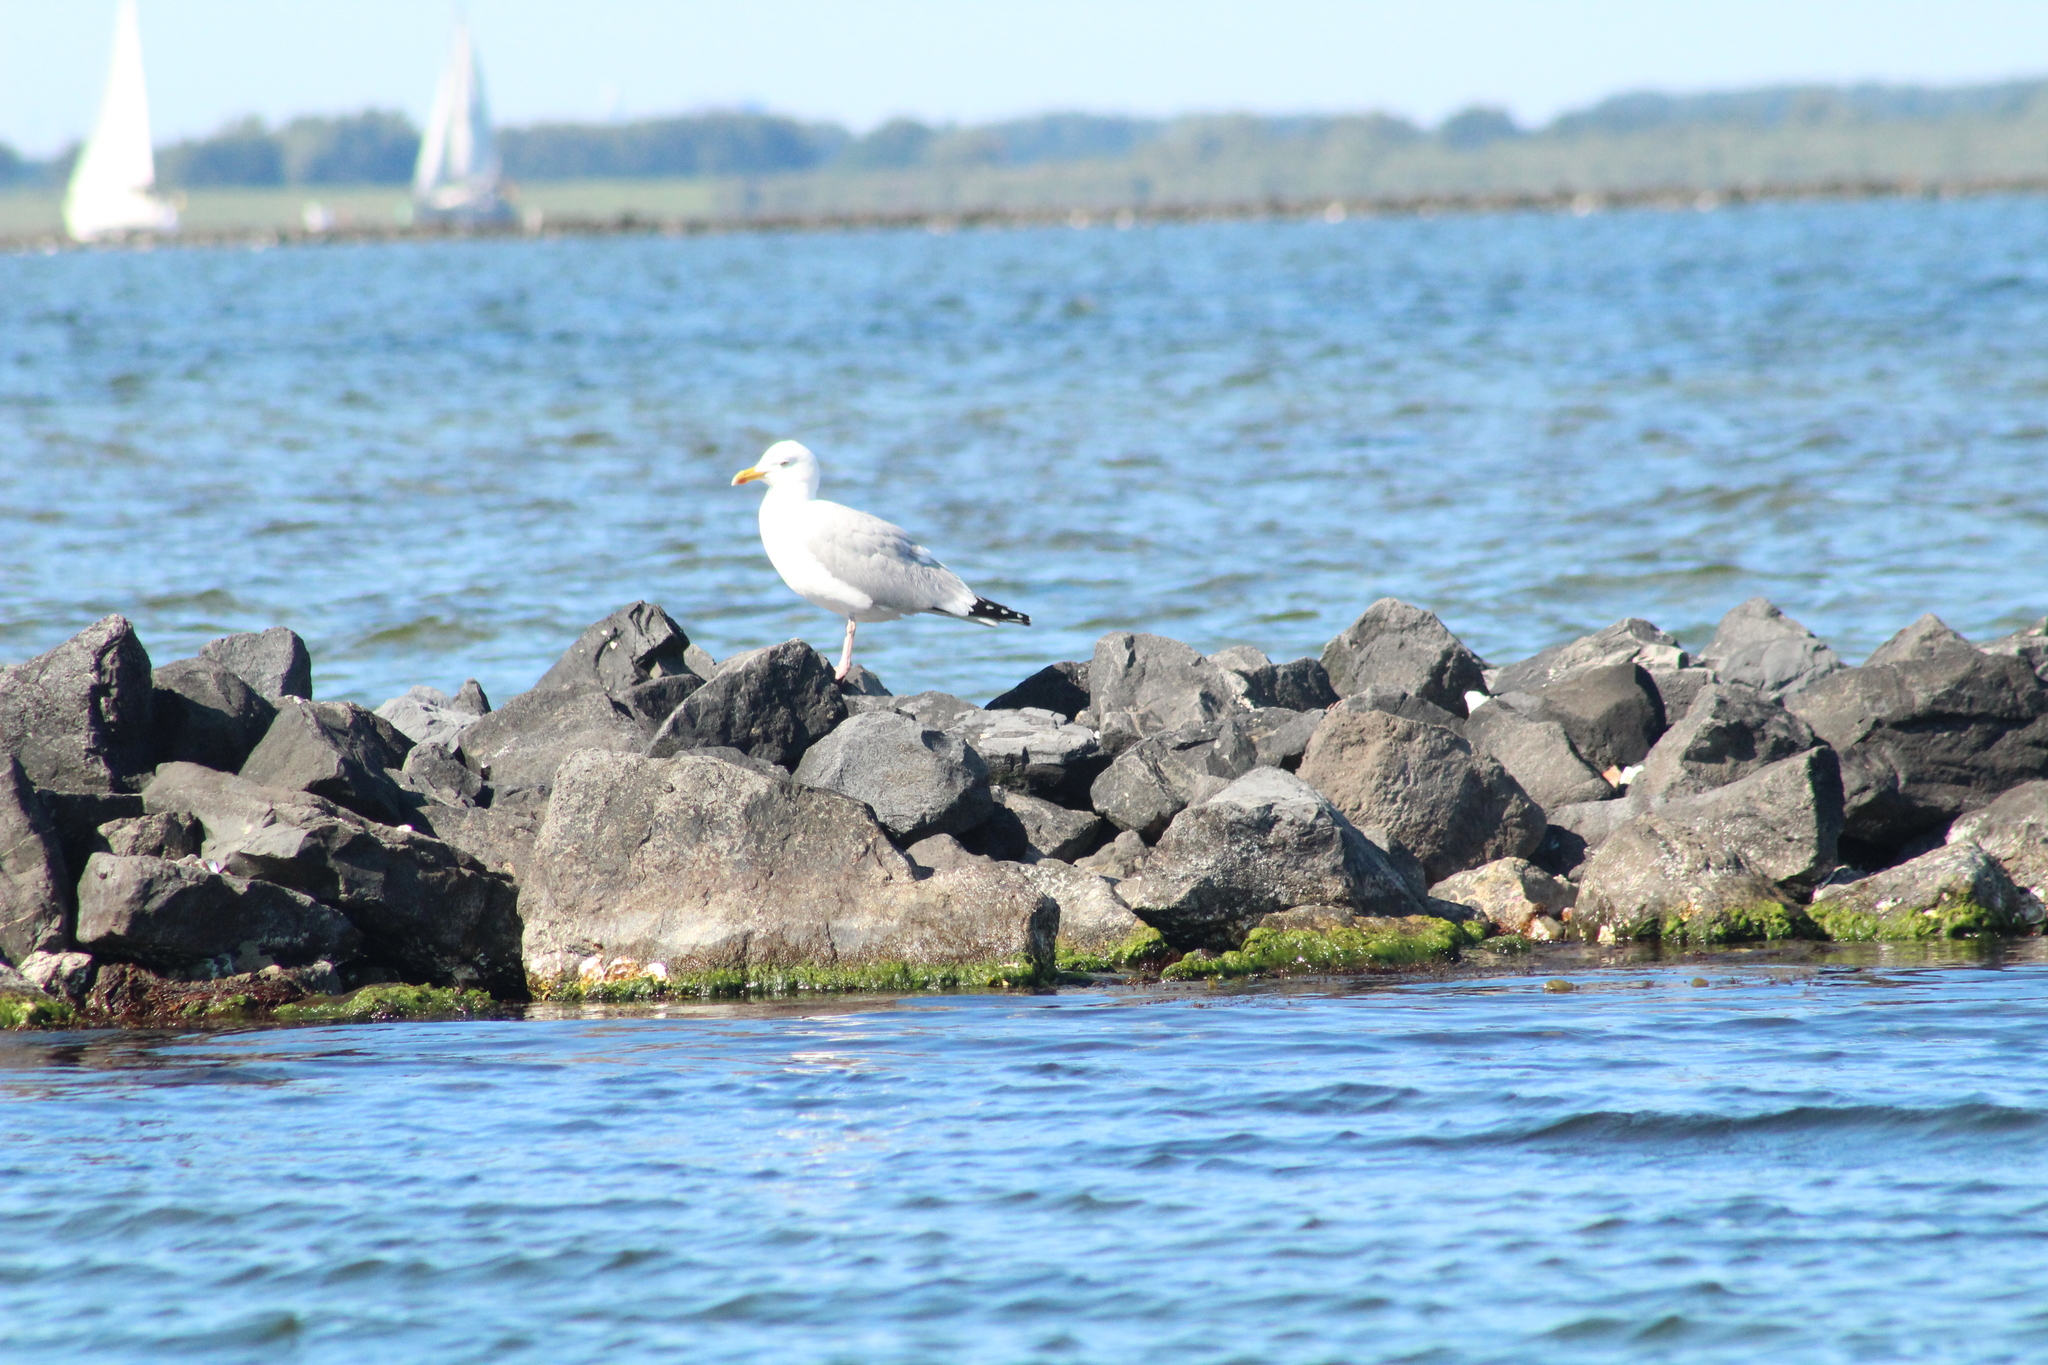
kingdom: Animalia
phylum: Chordata
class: Aves
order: Charadriiformes
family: Laridae
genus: Larus
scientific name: Larus argentatus
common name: Herring gull
